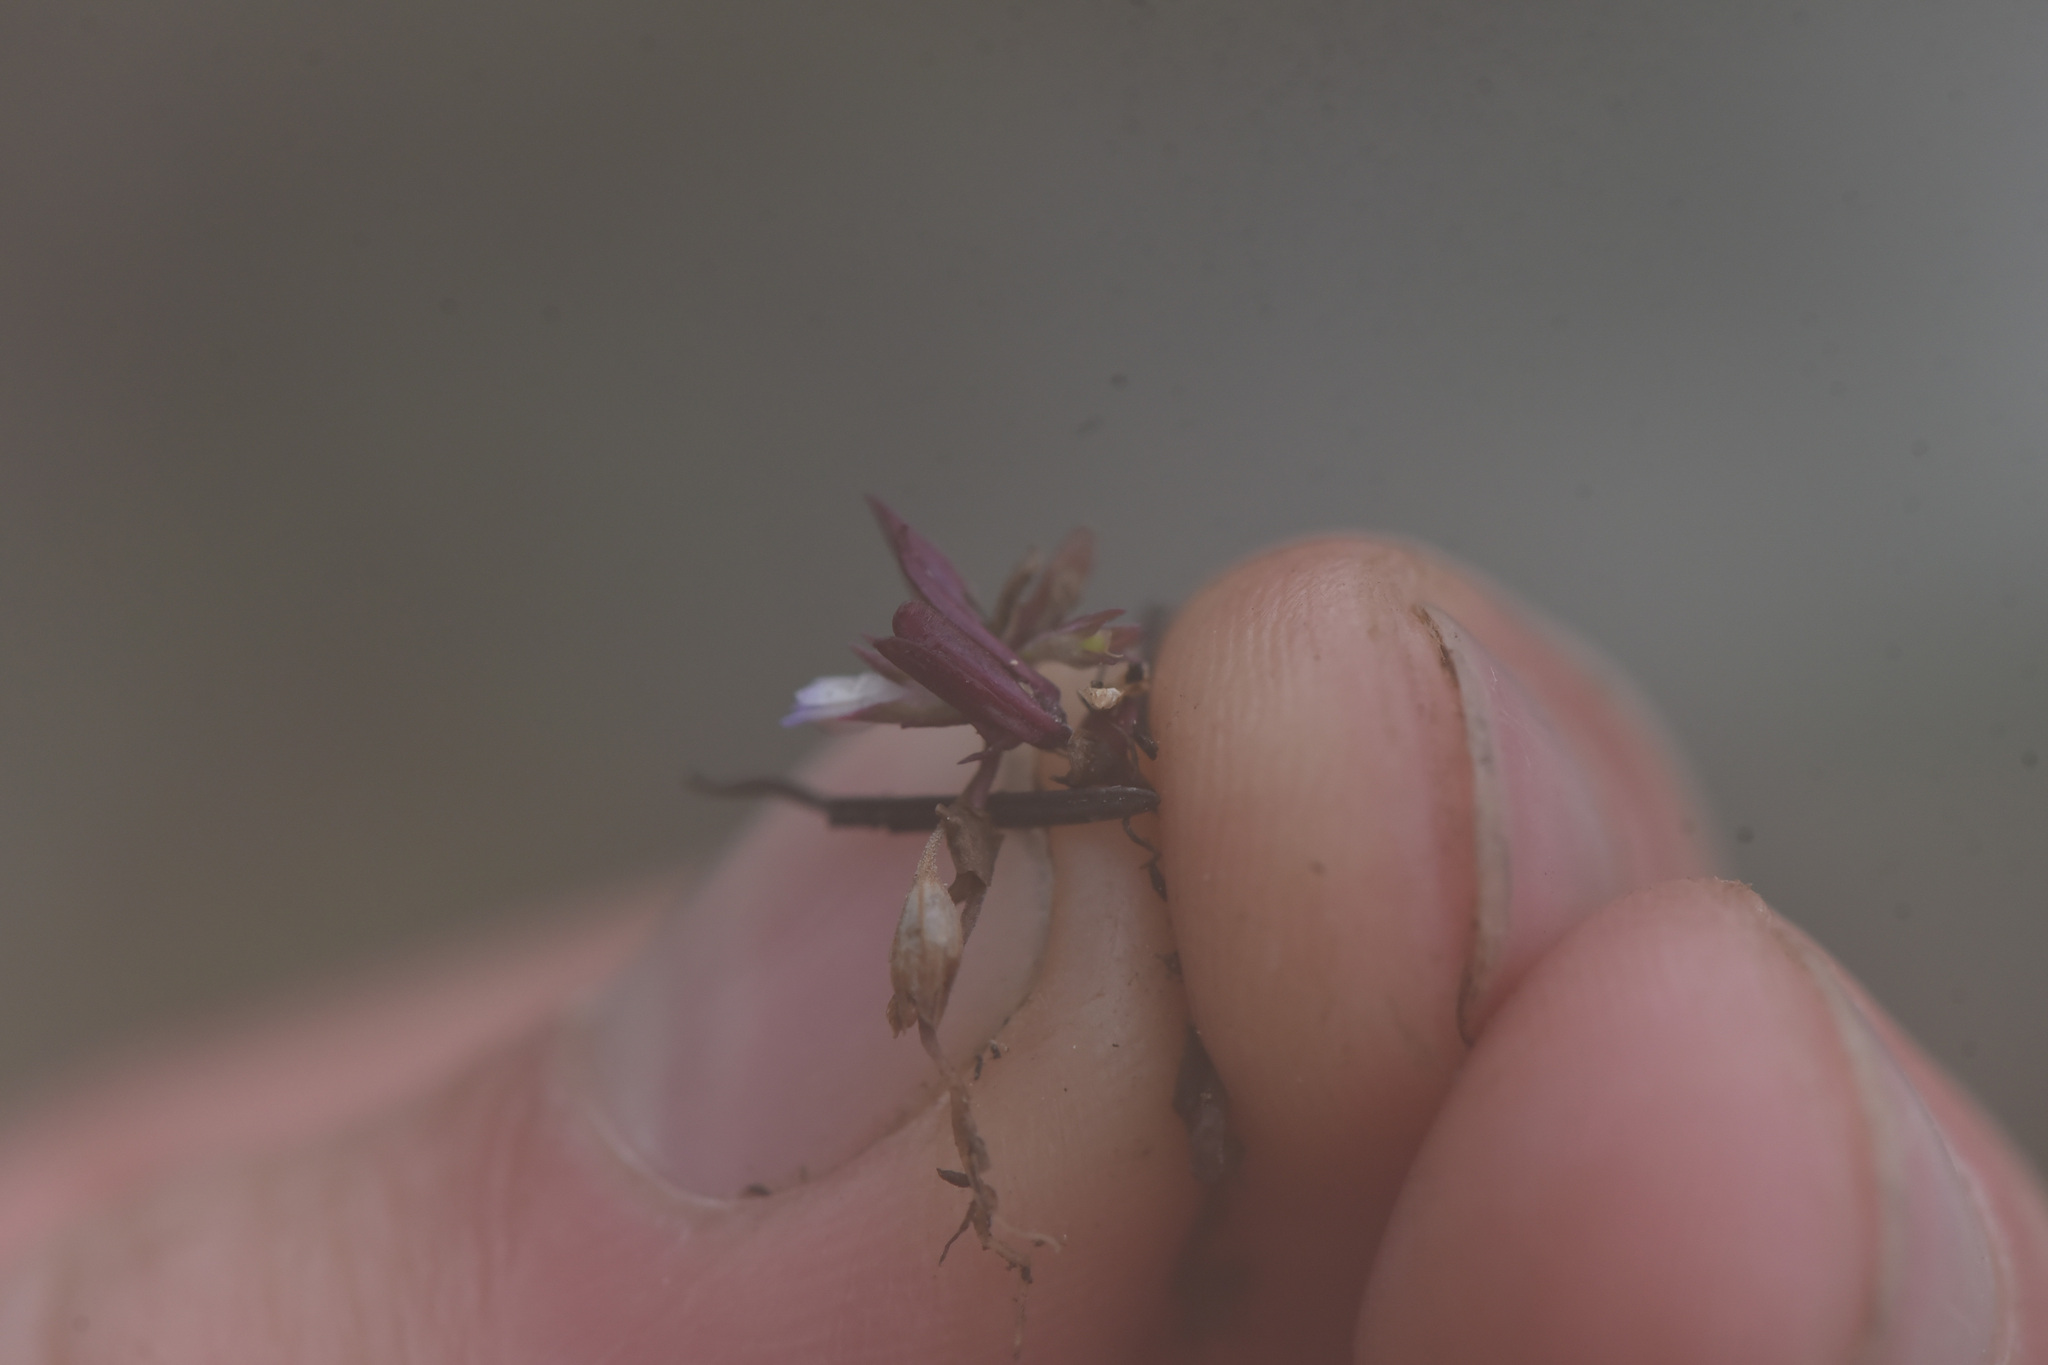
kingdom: Plantae
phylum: Tracheophyta
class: Magnoliopsida
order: Lamiales
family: Plantaginaceae
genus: Collinsia
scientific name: Collinsia parviflora
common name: Blue-lips
